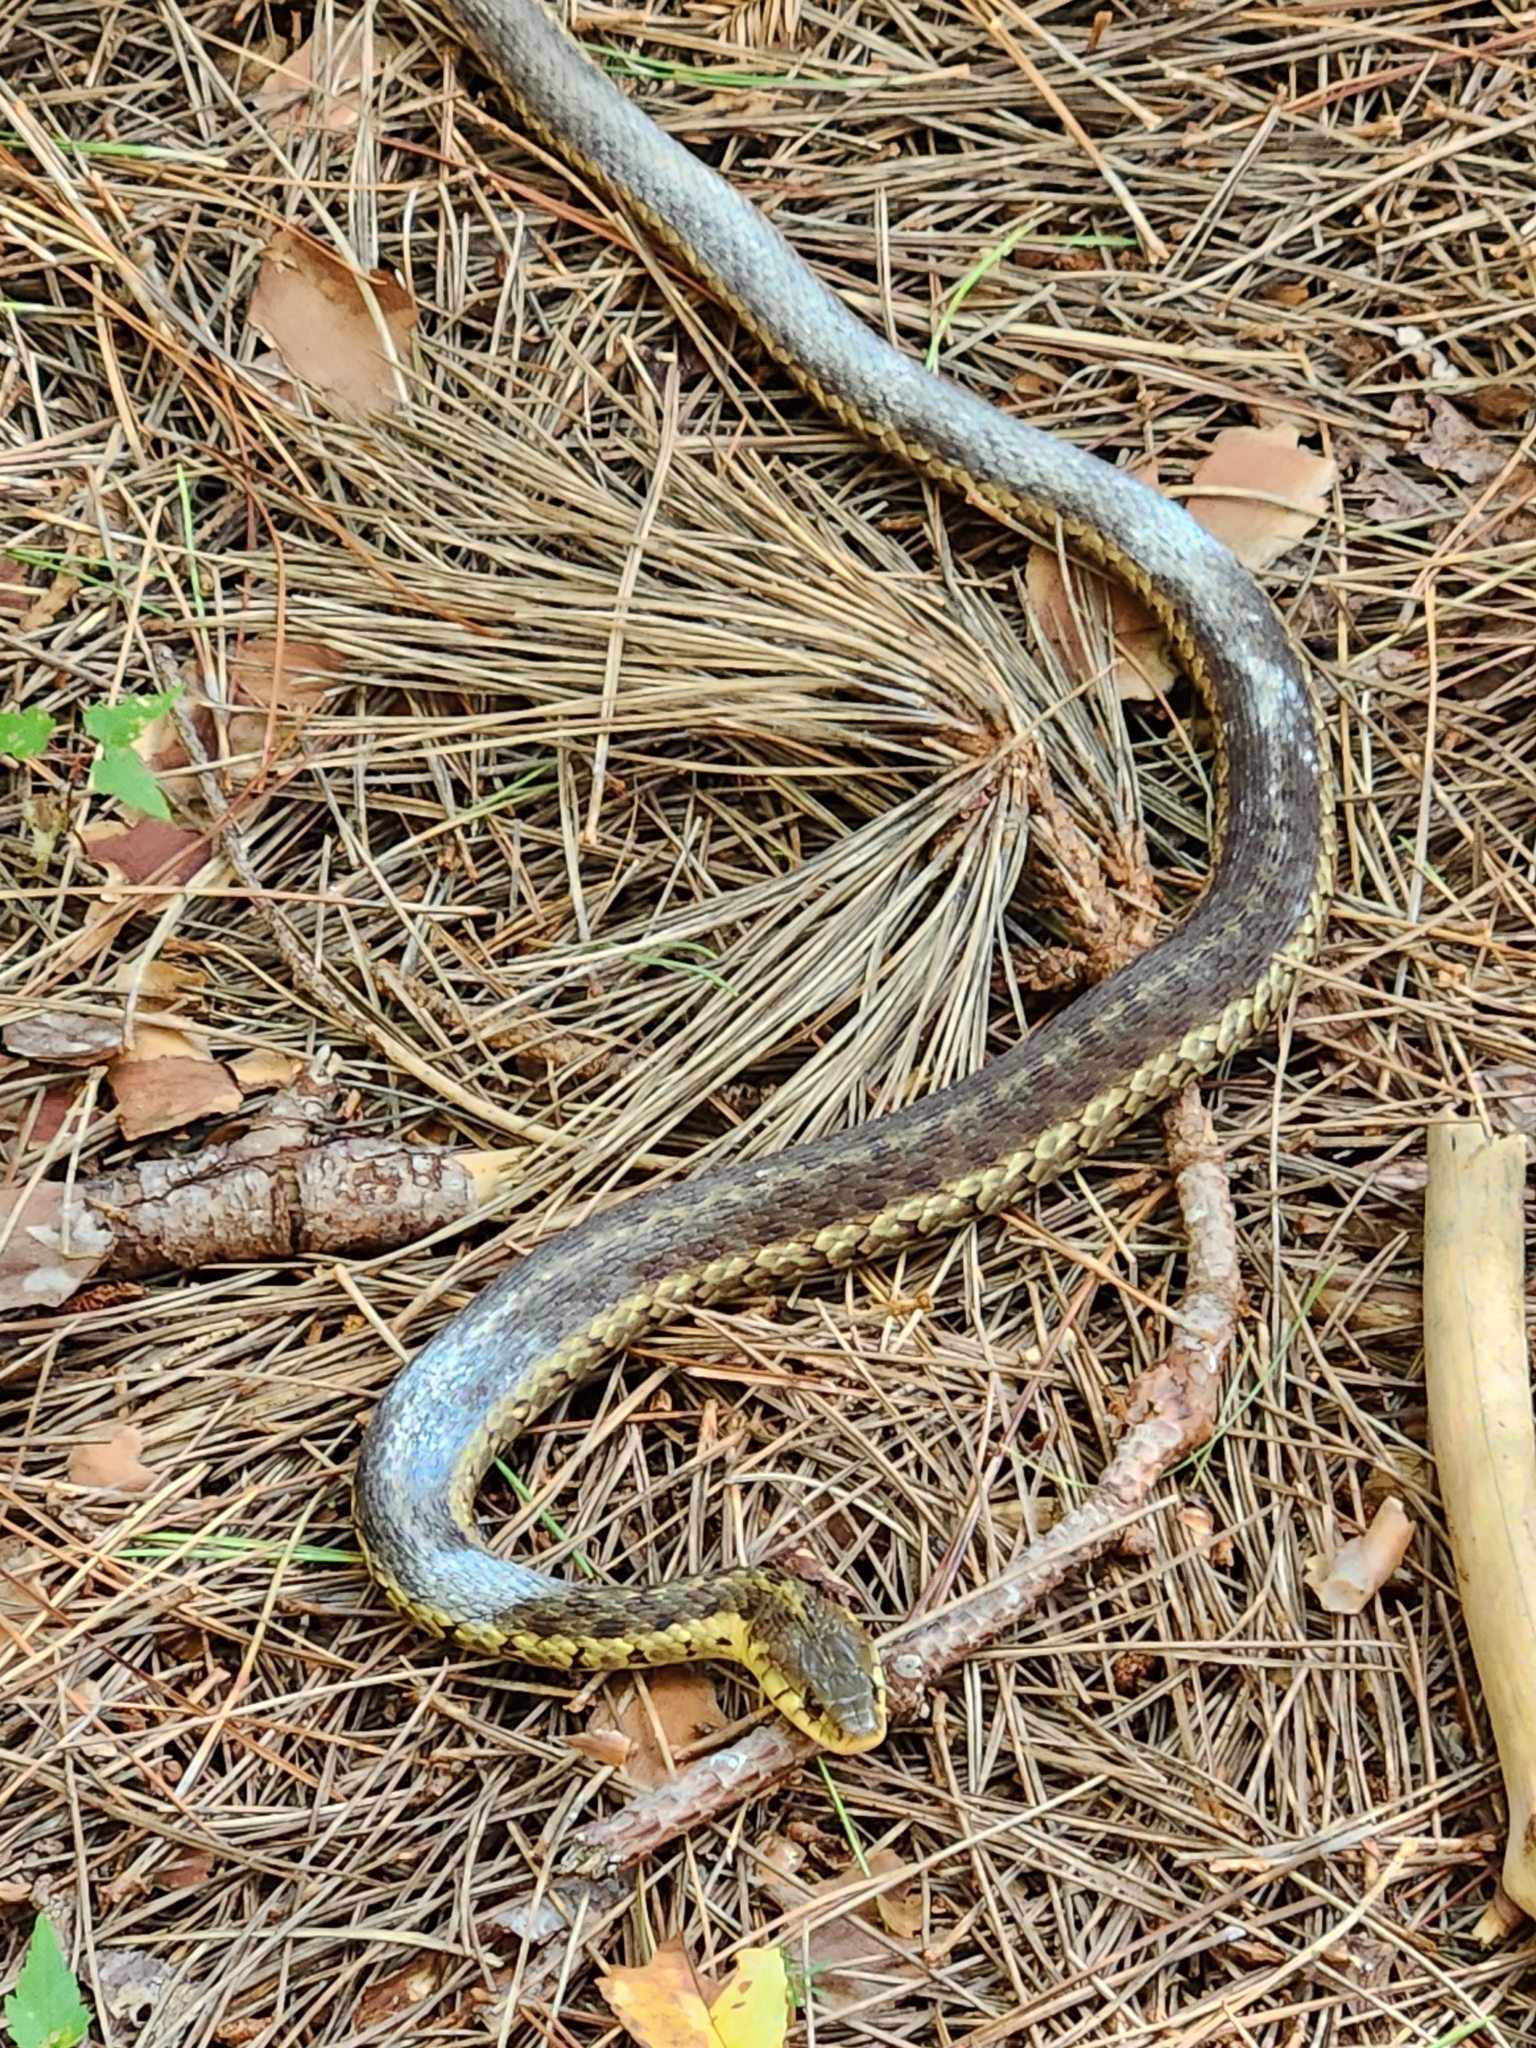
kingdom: Animalia
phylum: Chordata
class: Squamata
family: Colubridae
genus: Thamnophis
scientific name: Thamnophis sirtalis
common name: Common garter snake
